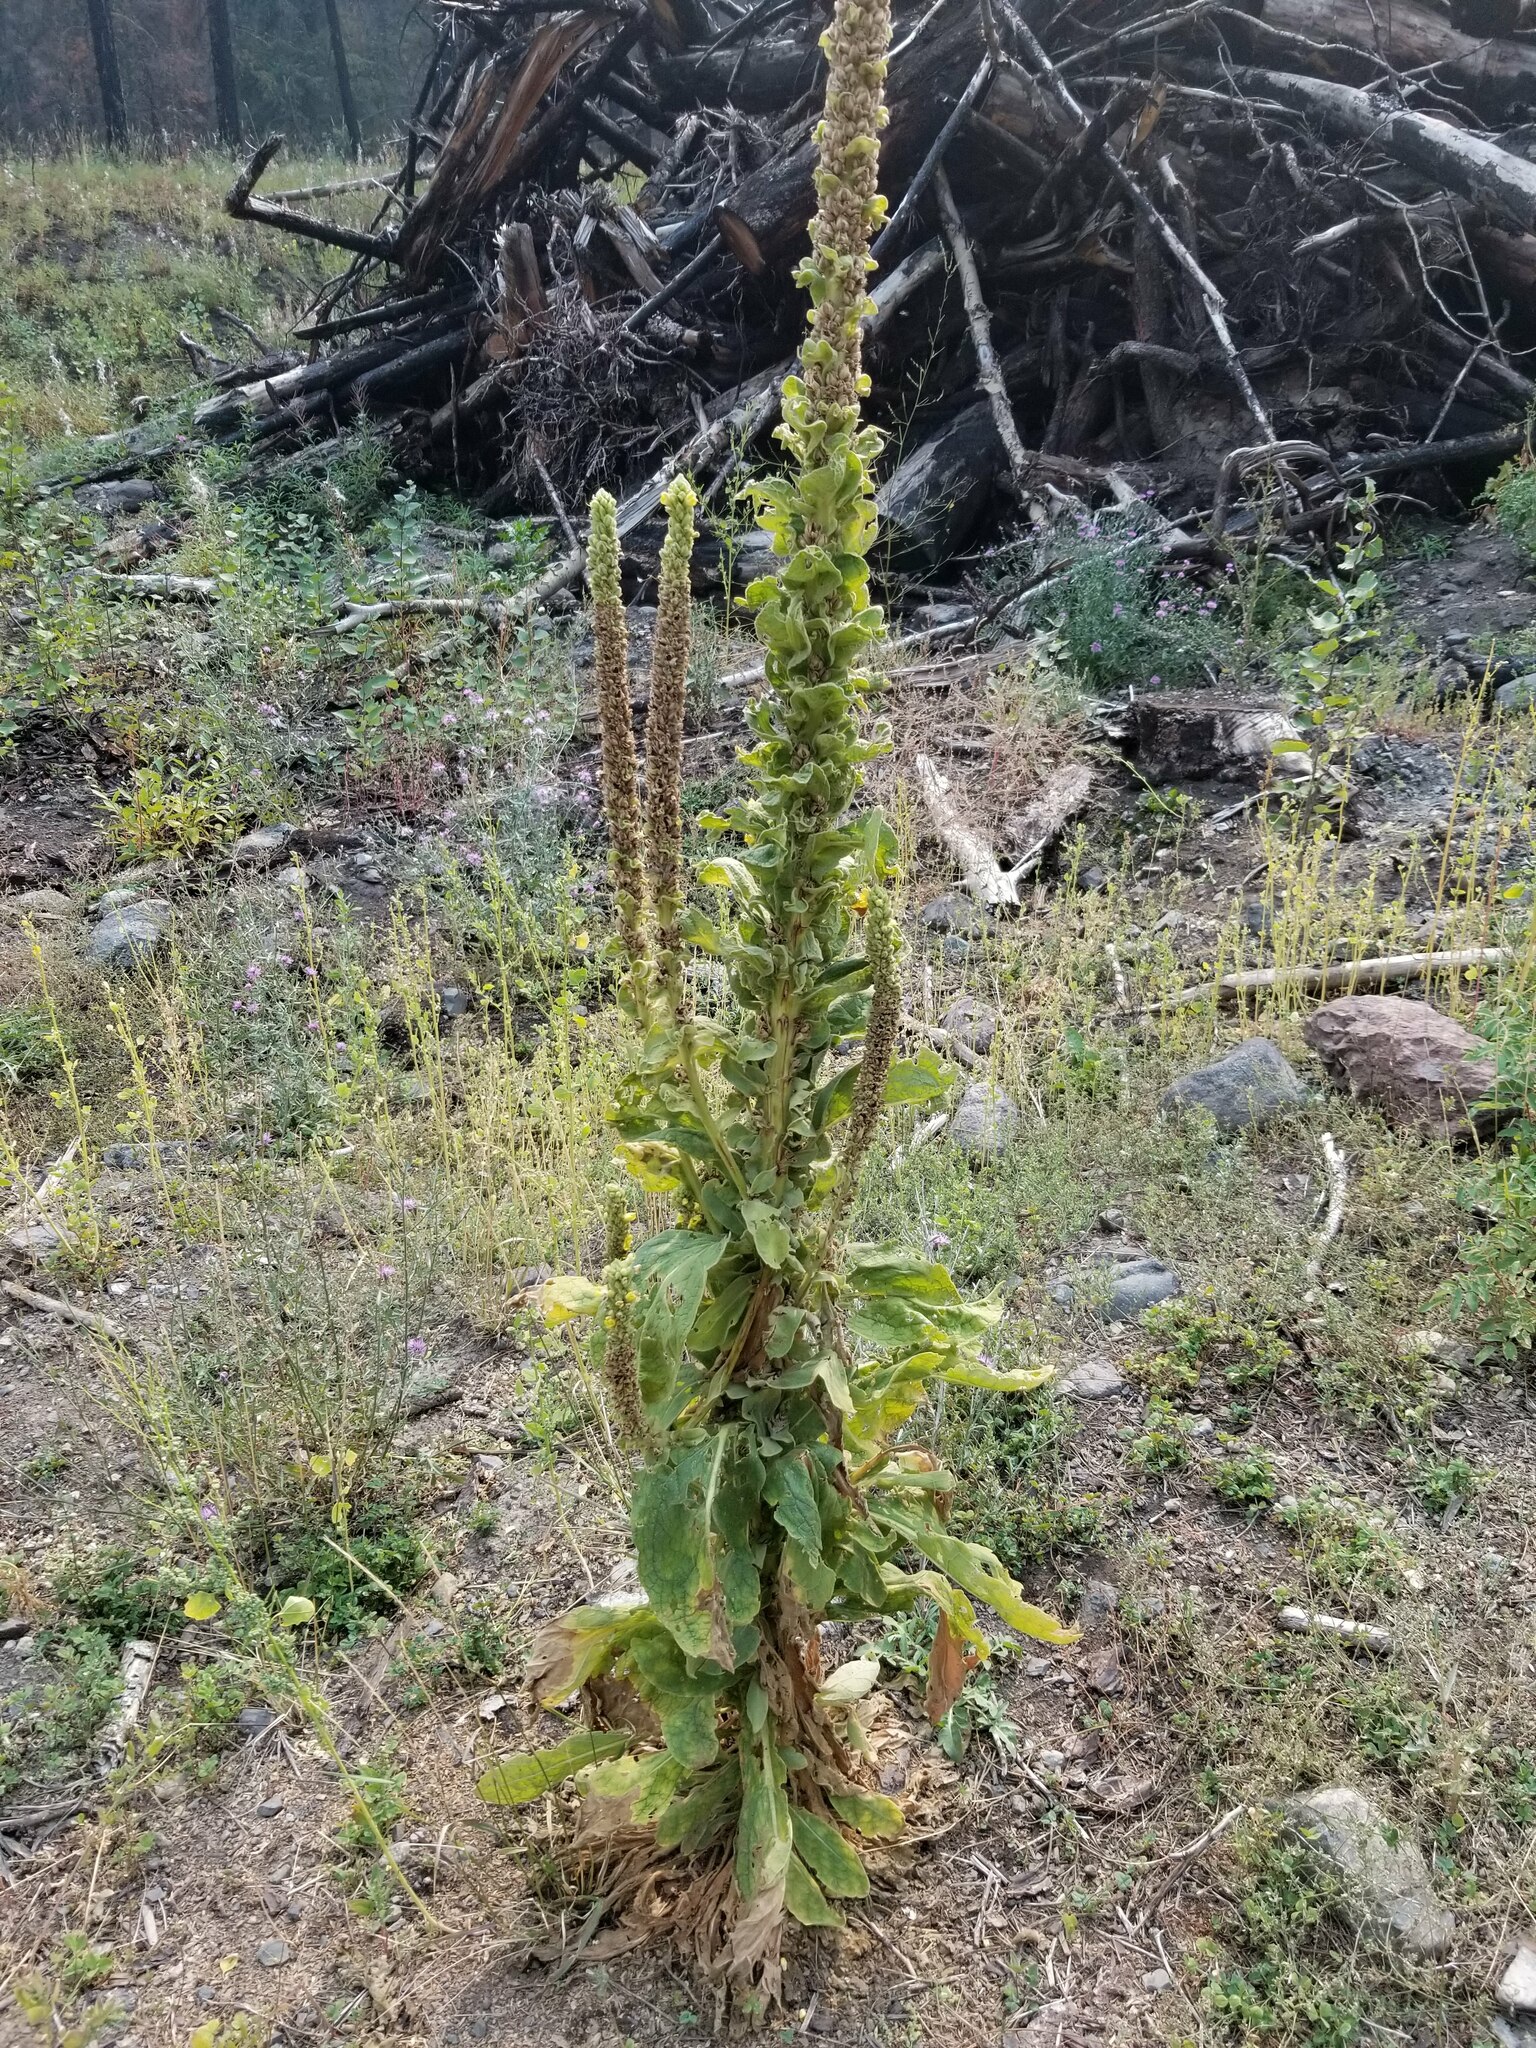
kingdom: Plantae
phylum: Tracheophyta
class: Magnoliopsida
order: Lamiales
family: Scrophulariaceae
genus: Verbascum
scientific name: Verbascum thapsus
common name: Common mullein
